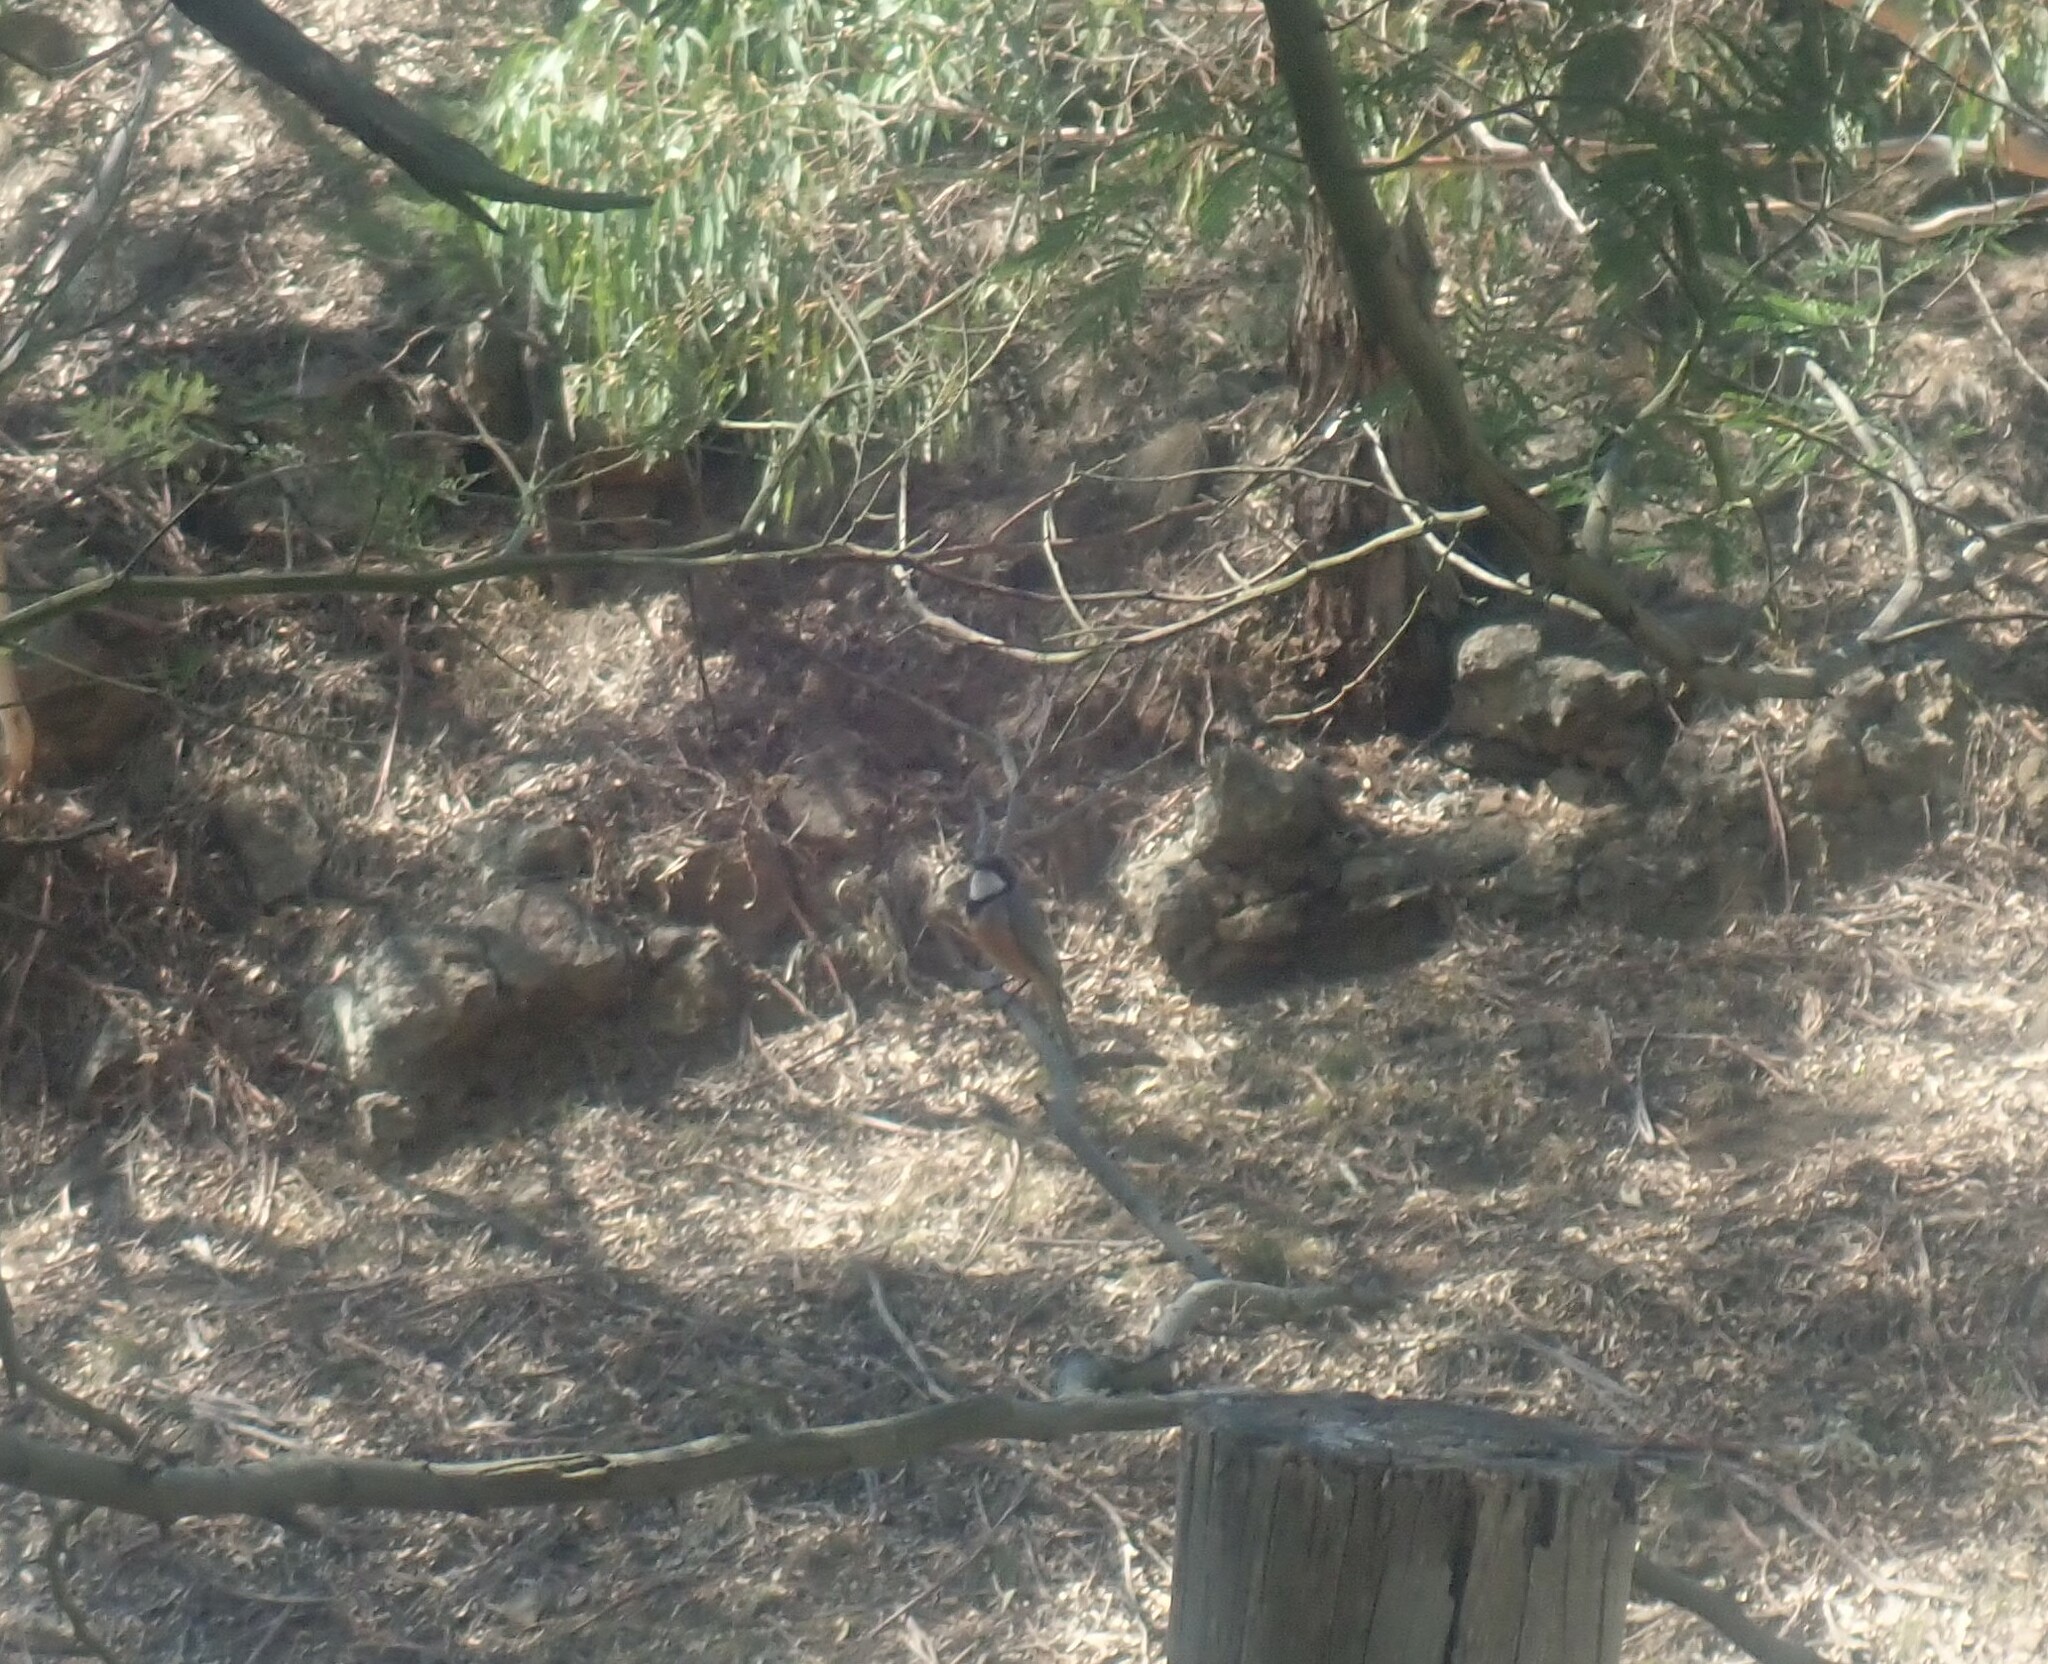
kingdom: Animalia
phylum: Chordata
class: Aves
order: Passeriformes
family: Pachycephalidae
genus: Pachycephala
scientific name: Pachycephala rufiventris
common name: Rufous whistler
